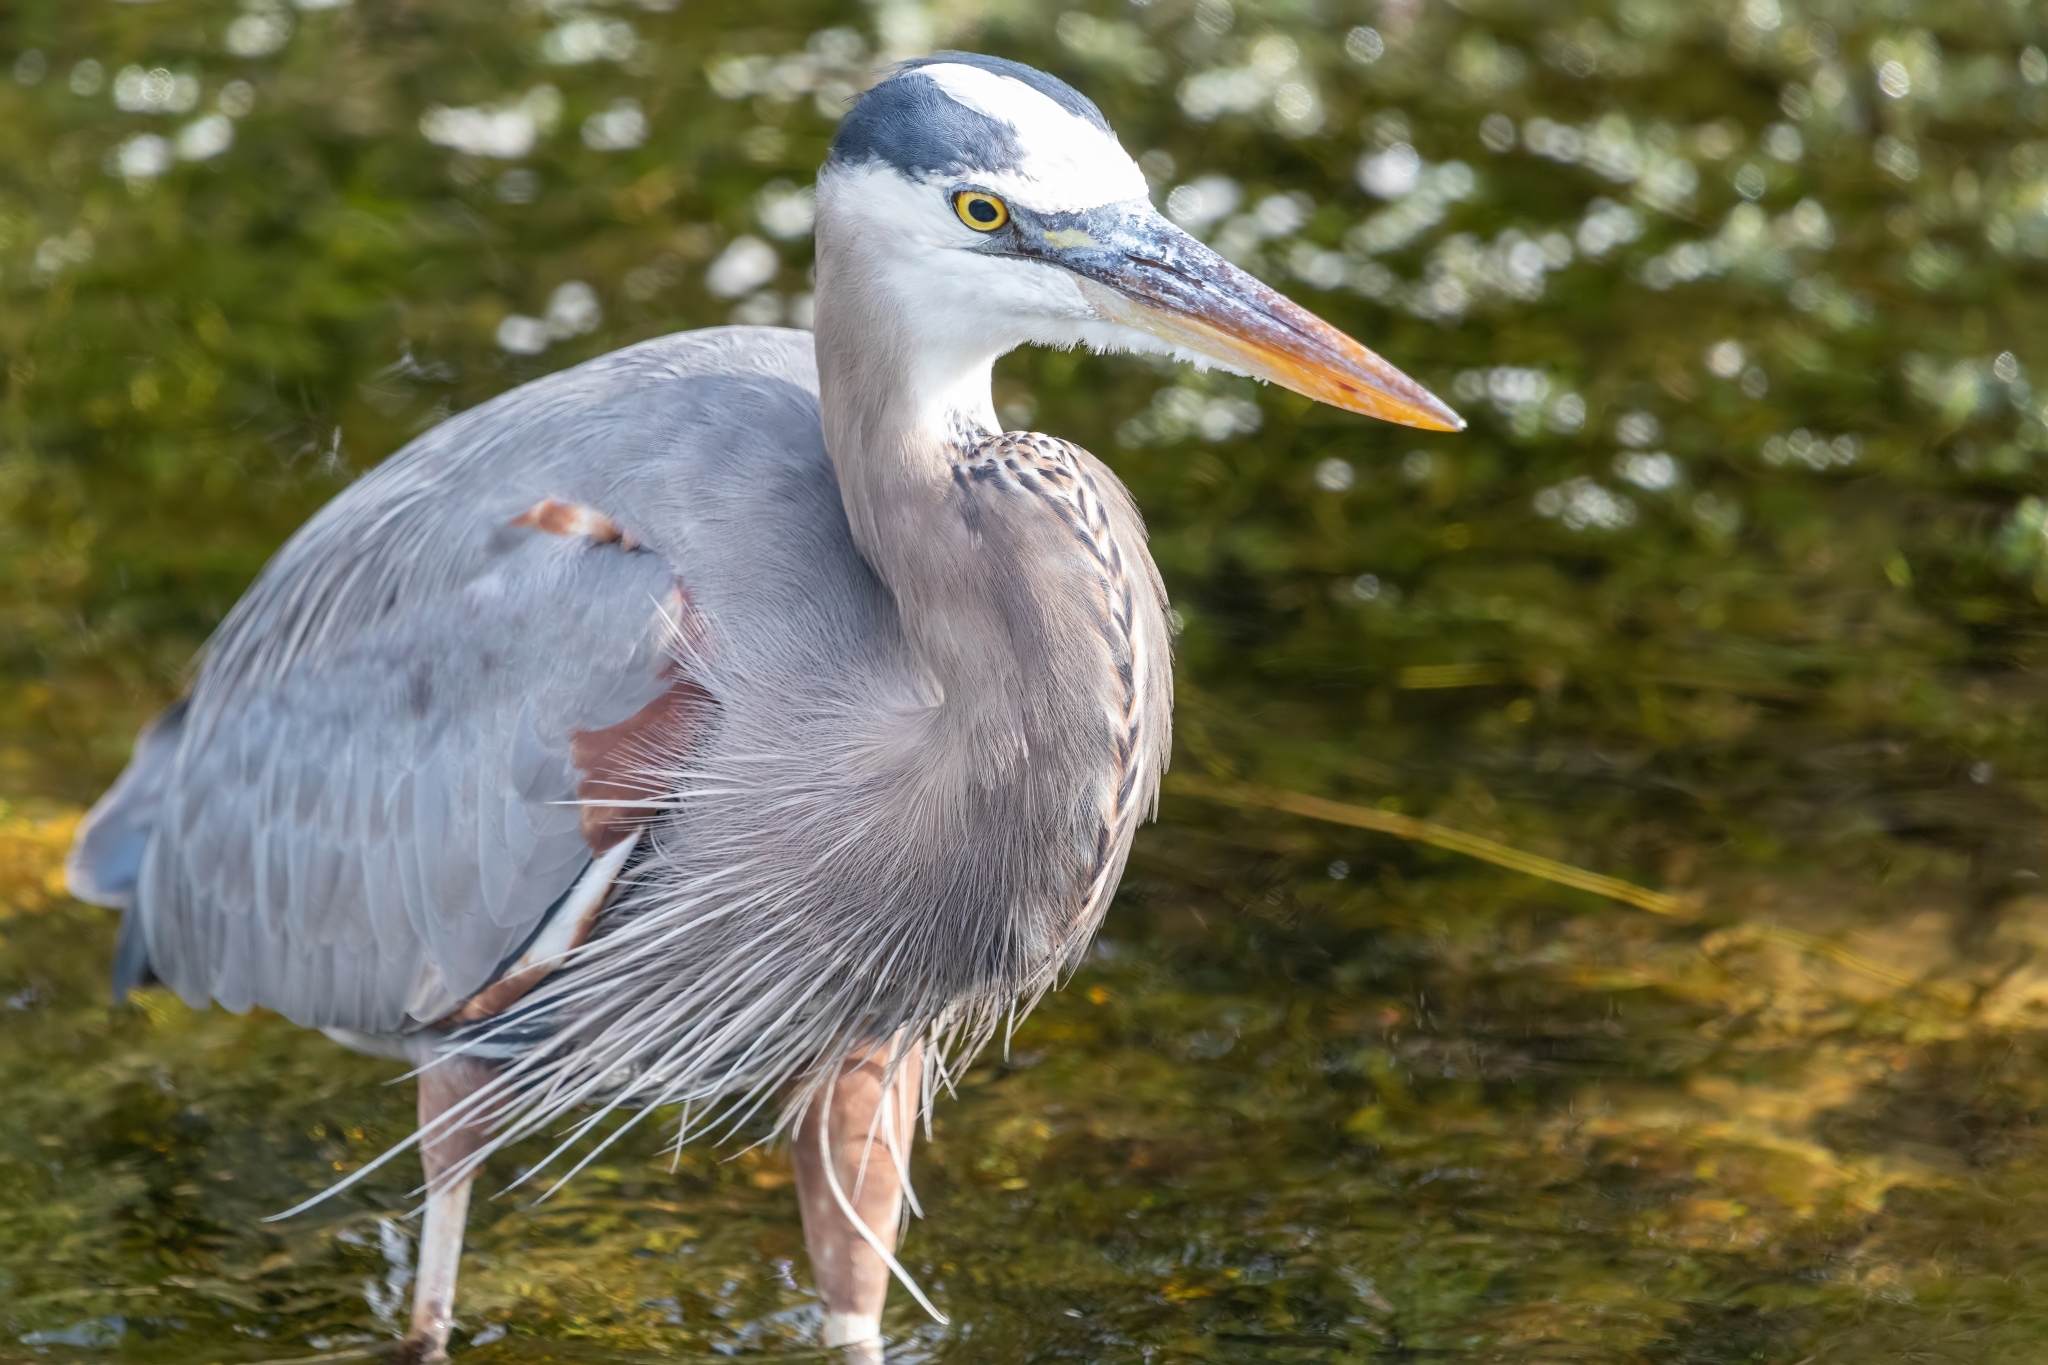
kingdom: Animalia
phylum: Chordata
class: Aves
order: Pelecaniformes
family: Ardeidae
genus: Ardea
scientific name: Ardea herodias
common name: Great blue heron
